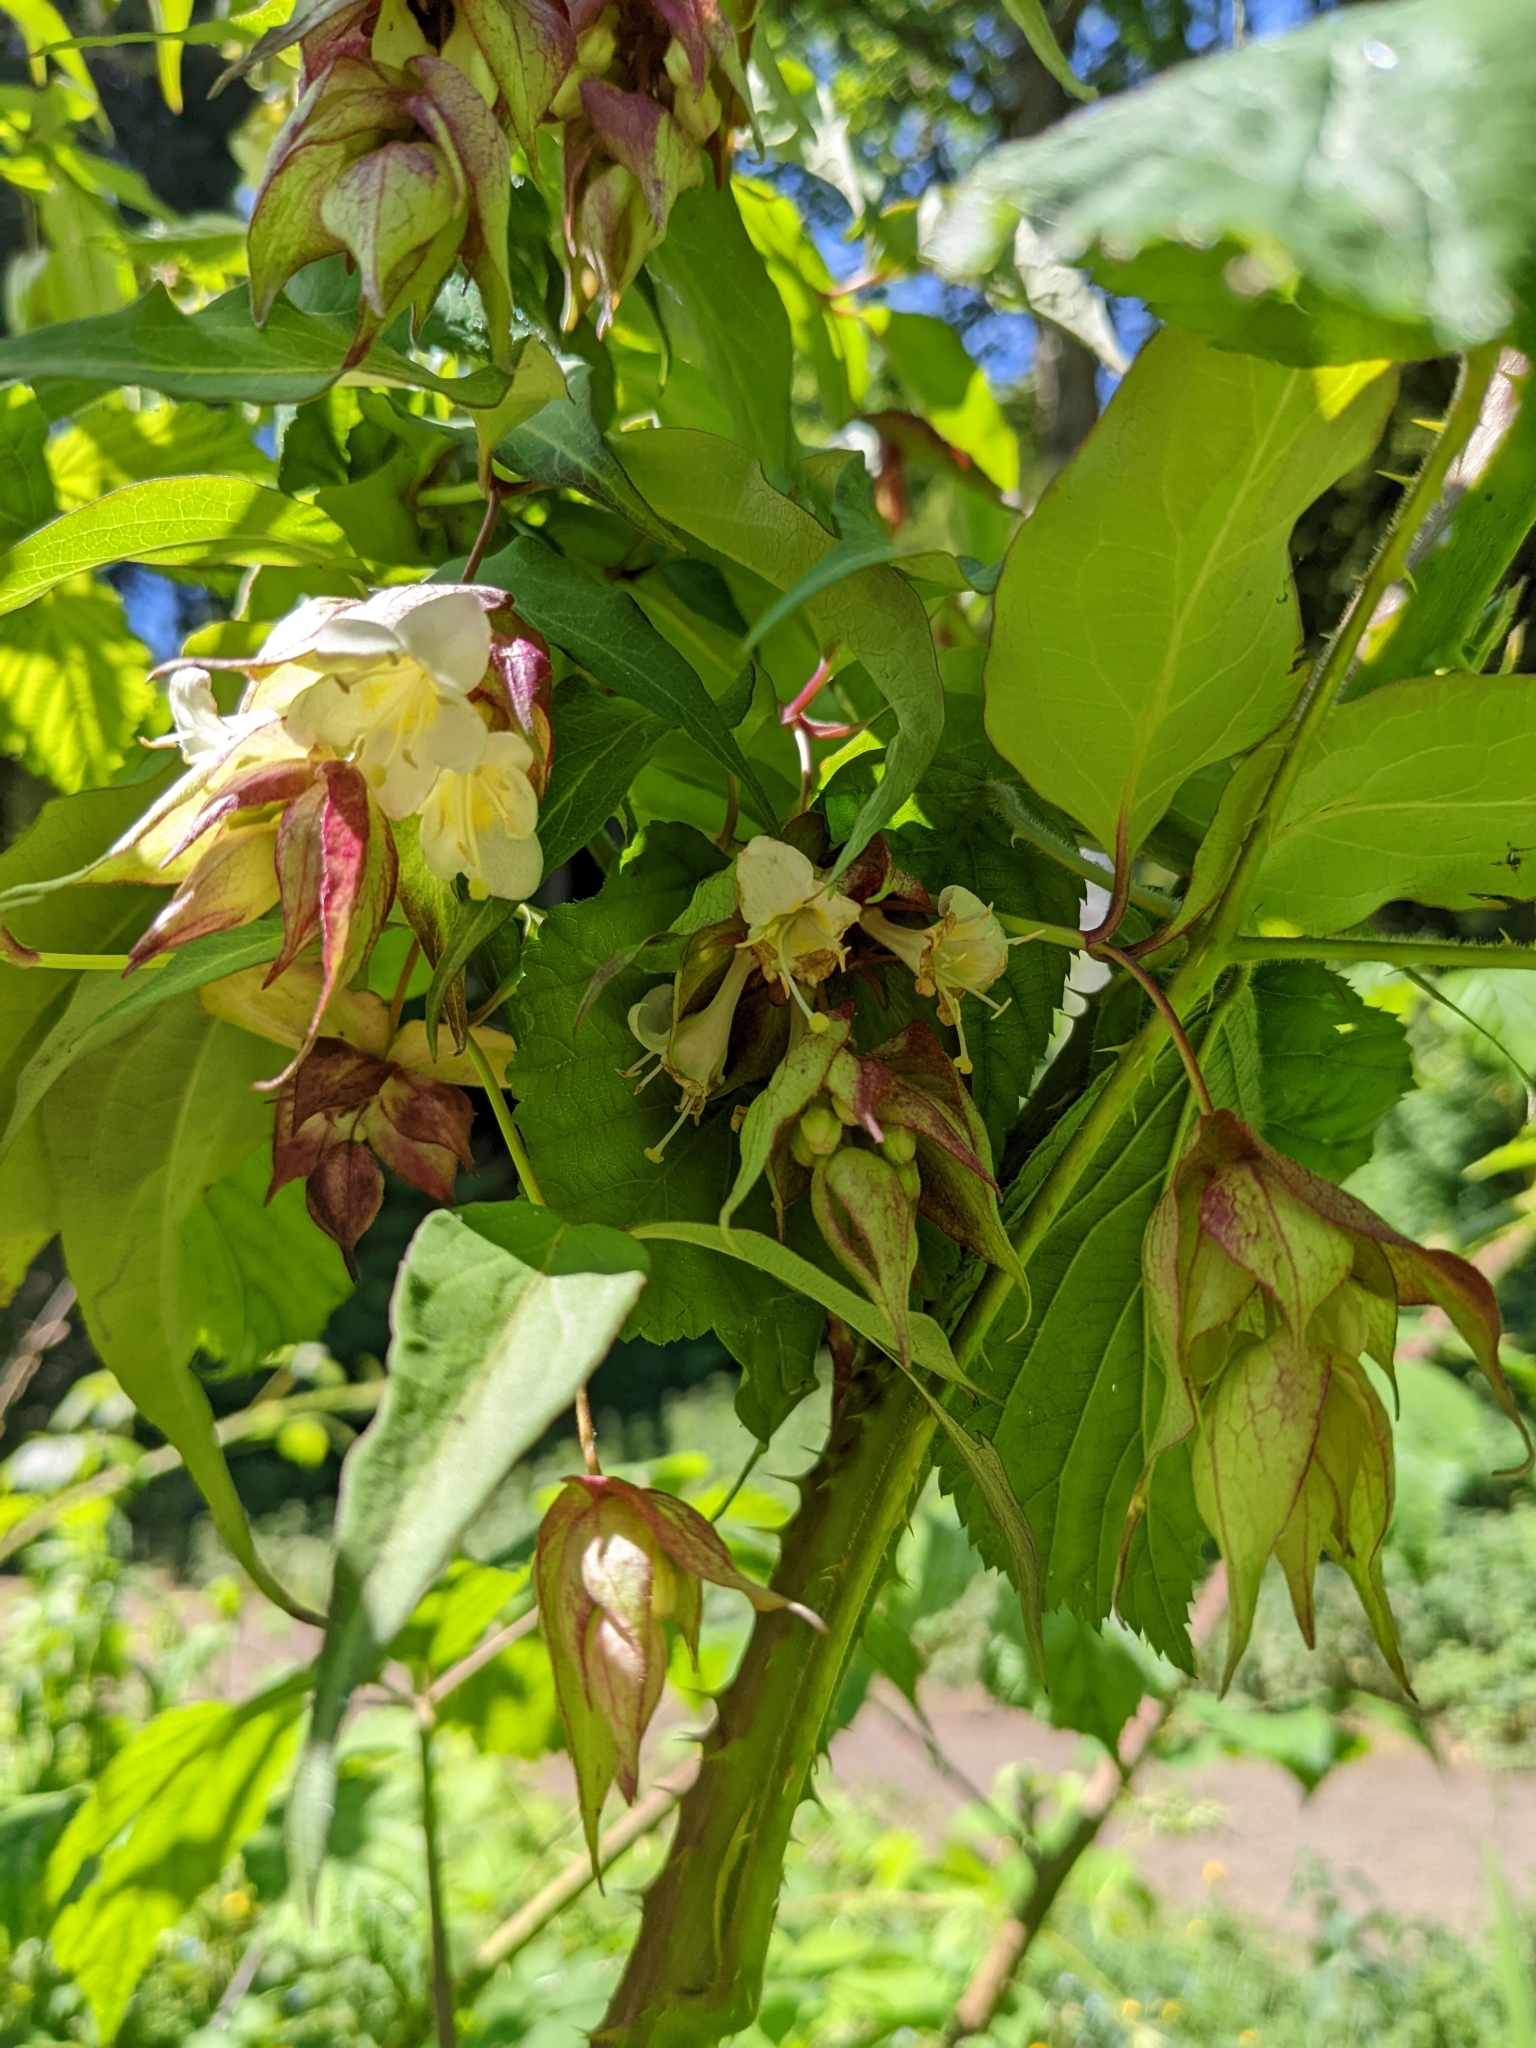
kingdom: Plantae
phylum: Tracheophyta
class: Magnoliopsida
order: Dipsacales
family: Caprifoliaceae
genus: Leycesteria
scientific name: Leycesteria formosa
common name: Himalayan honeysuckle
